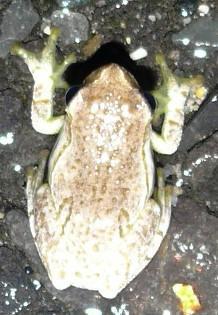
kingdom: Animalia
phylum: Chordata
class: Amphibia
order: Anura
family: Hyperoliidae
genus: Hyperolius
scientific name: Hyperolius marmoratus
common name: Painted reed frog
